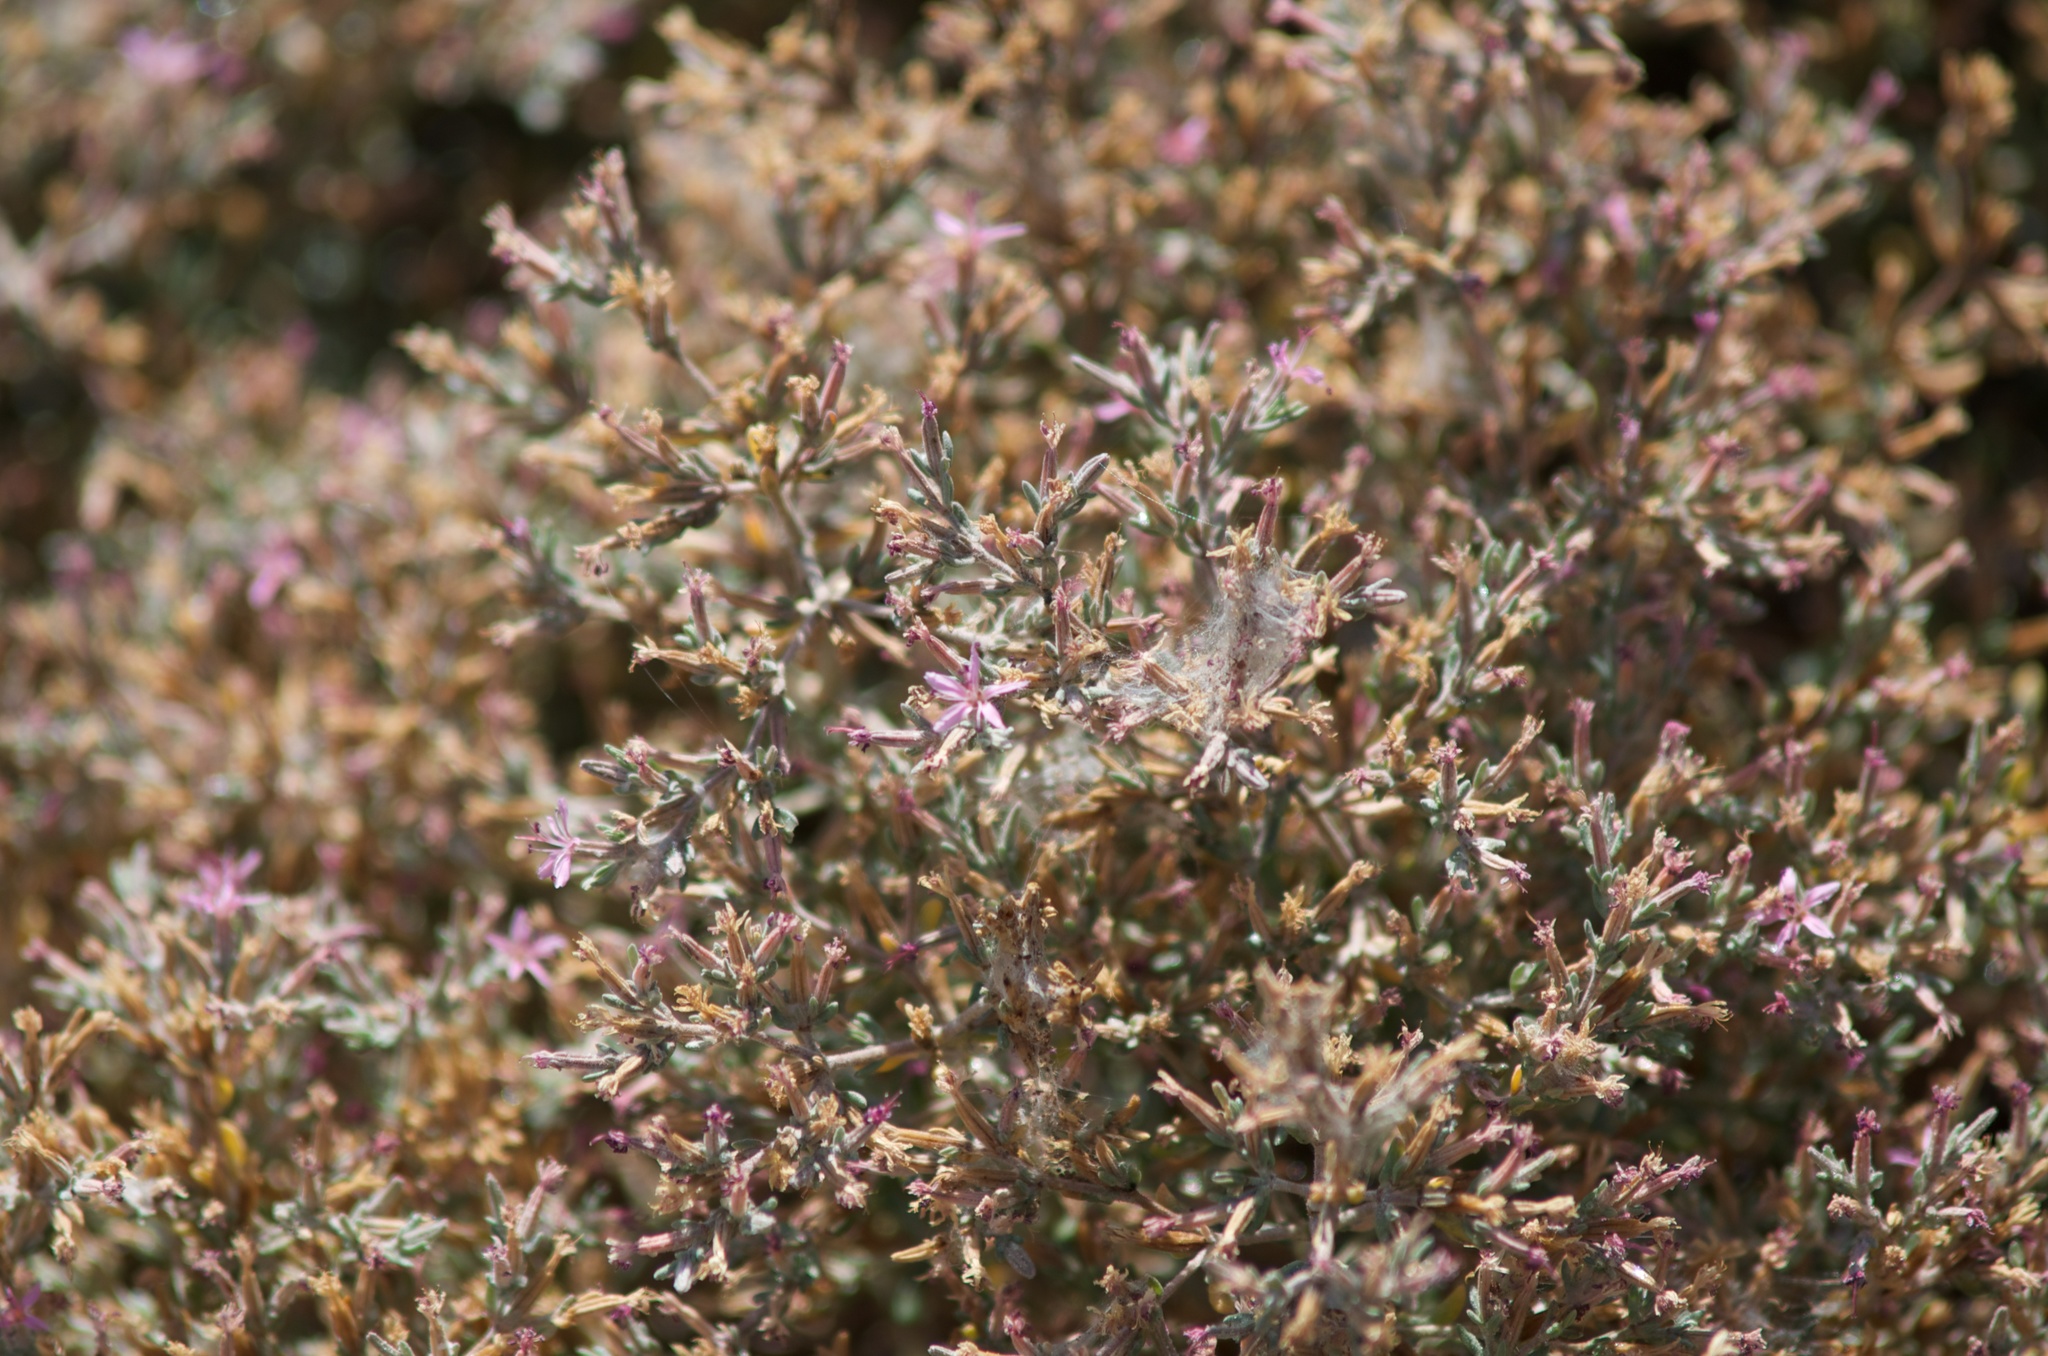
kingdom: Plantae
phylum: Tracheophyta
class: Magnoliopsida
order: Caryophyllales
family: Frankeniaceae
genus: Frankenia
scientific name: Frankenia salina
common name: Alkali seaheath
